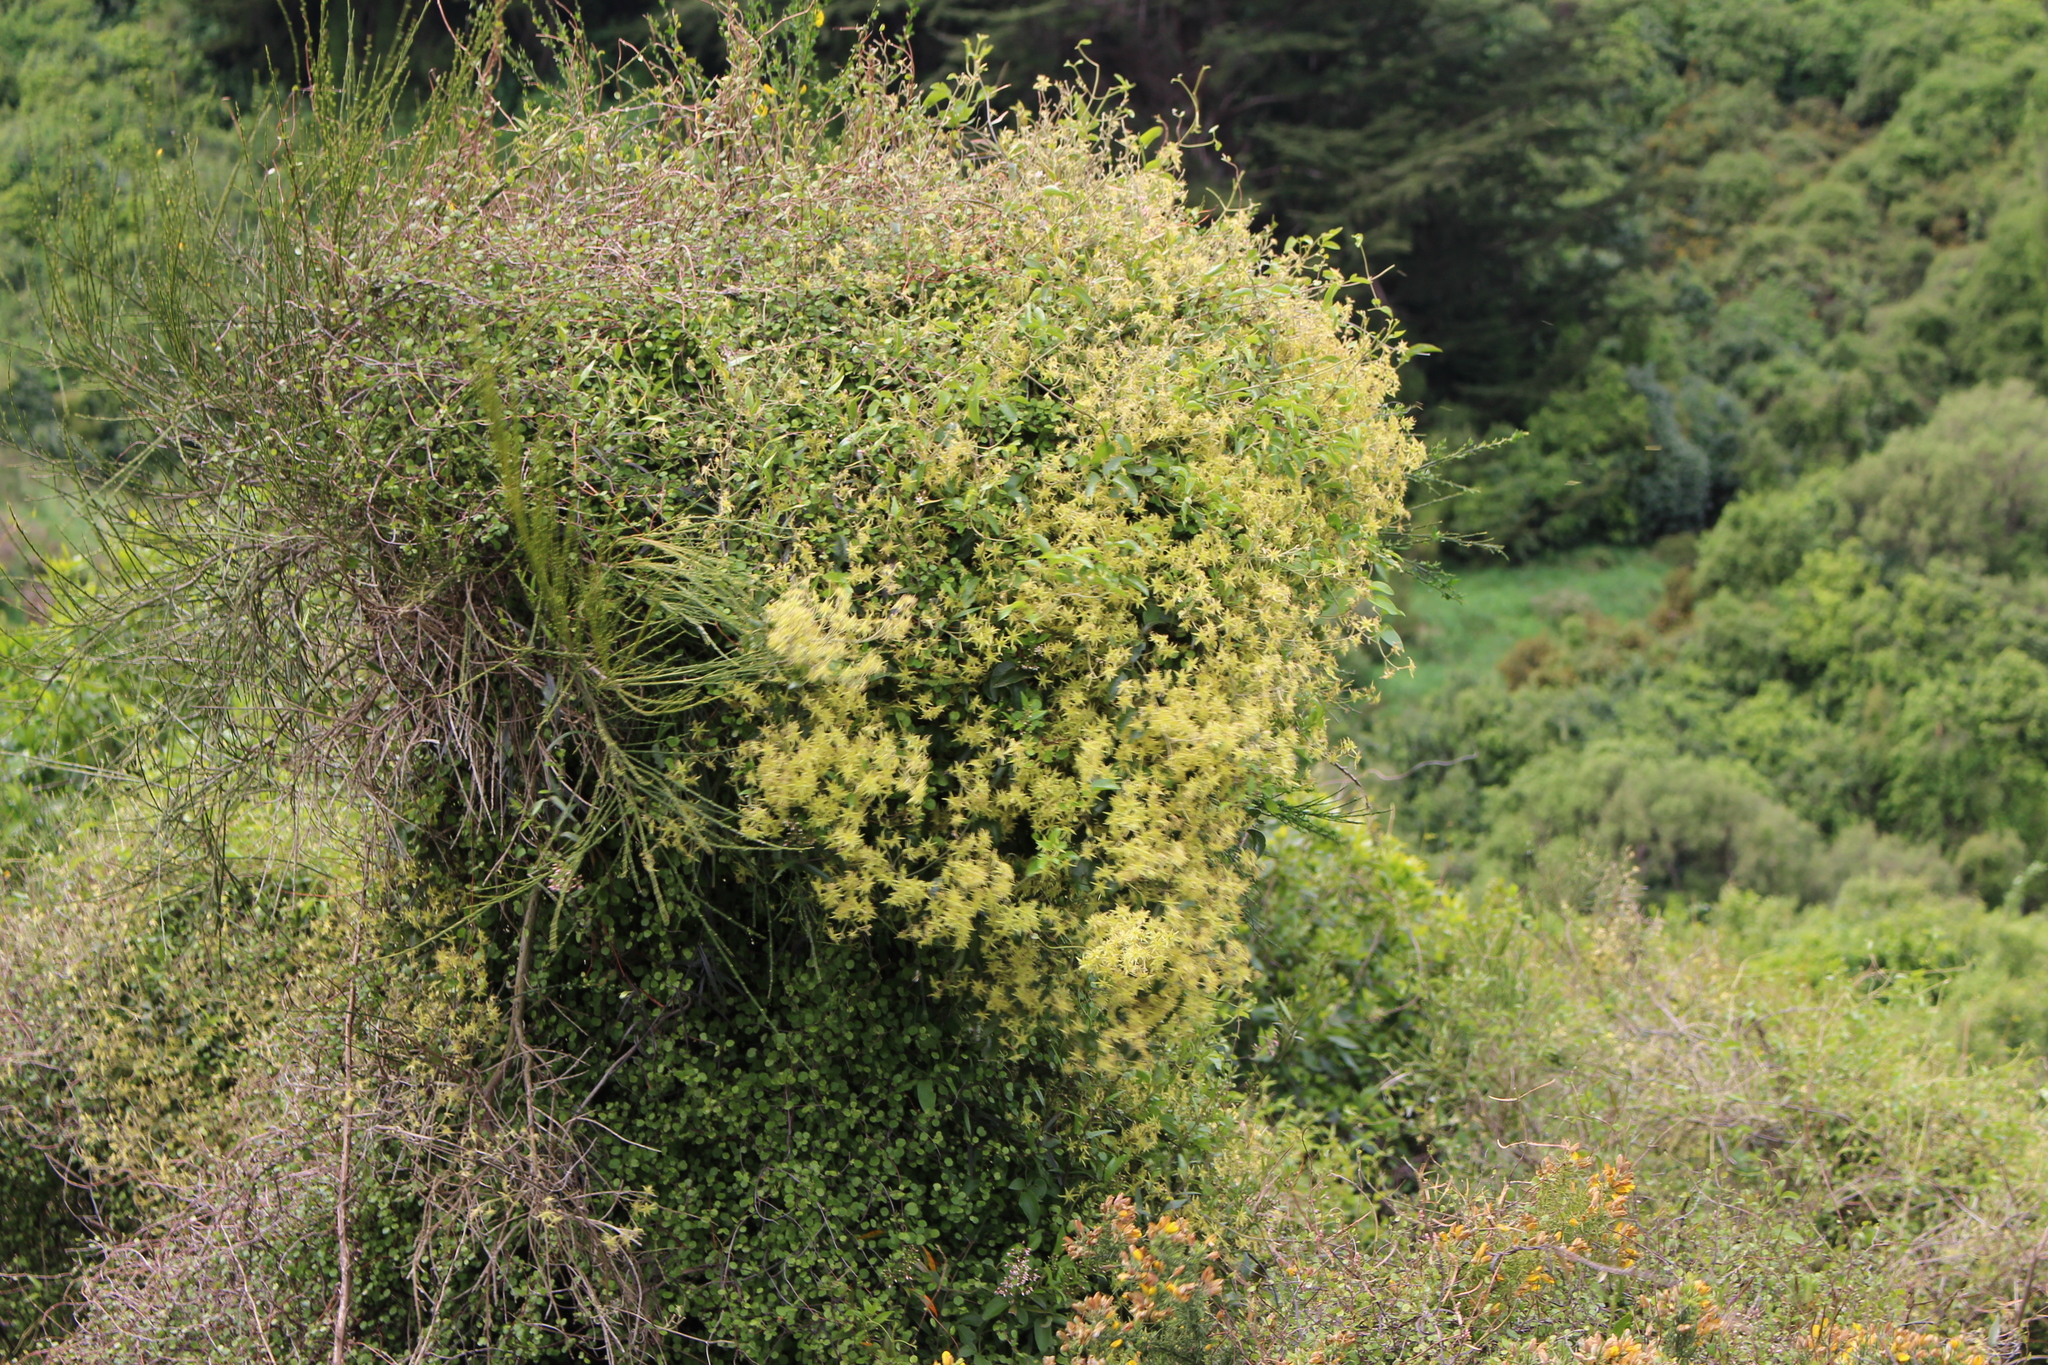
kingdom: Plantae
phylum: Tracheophyta
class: Magnoliopsida
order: Ranunculales
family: Ranunculaceae
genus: Clematis
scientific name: Clematis foetida
